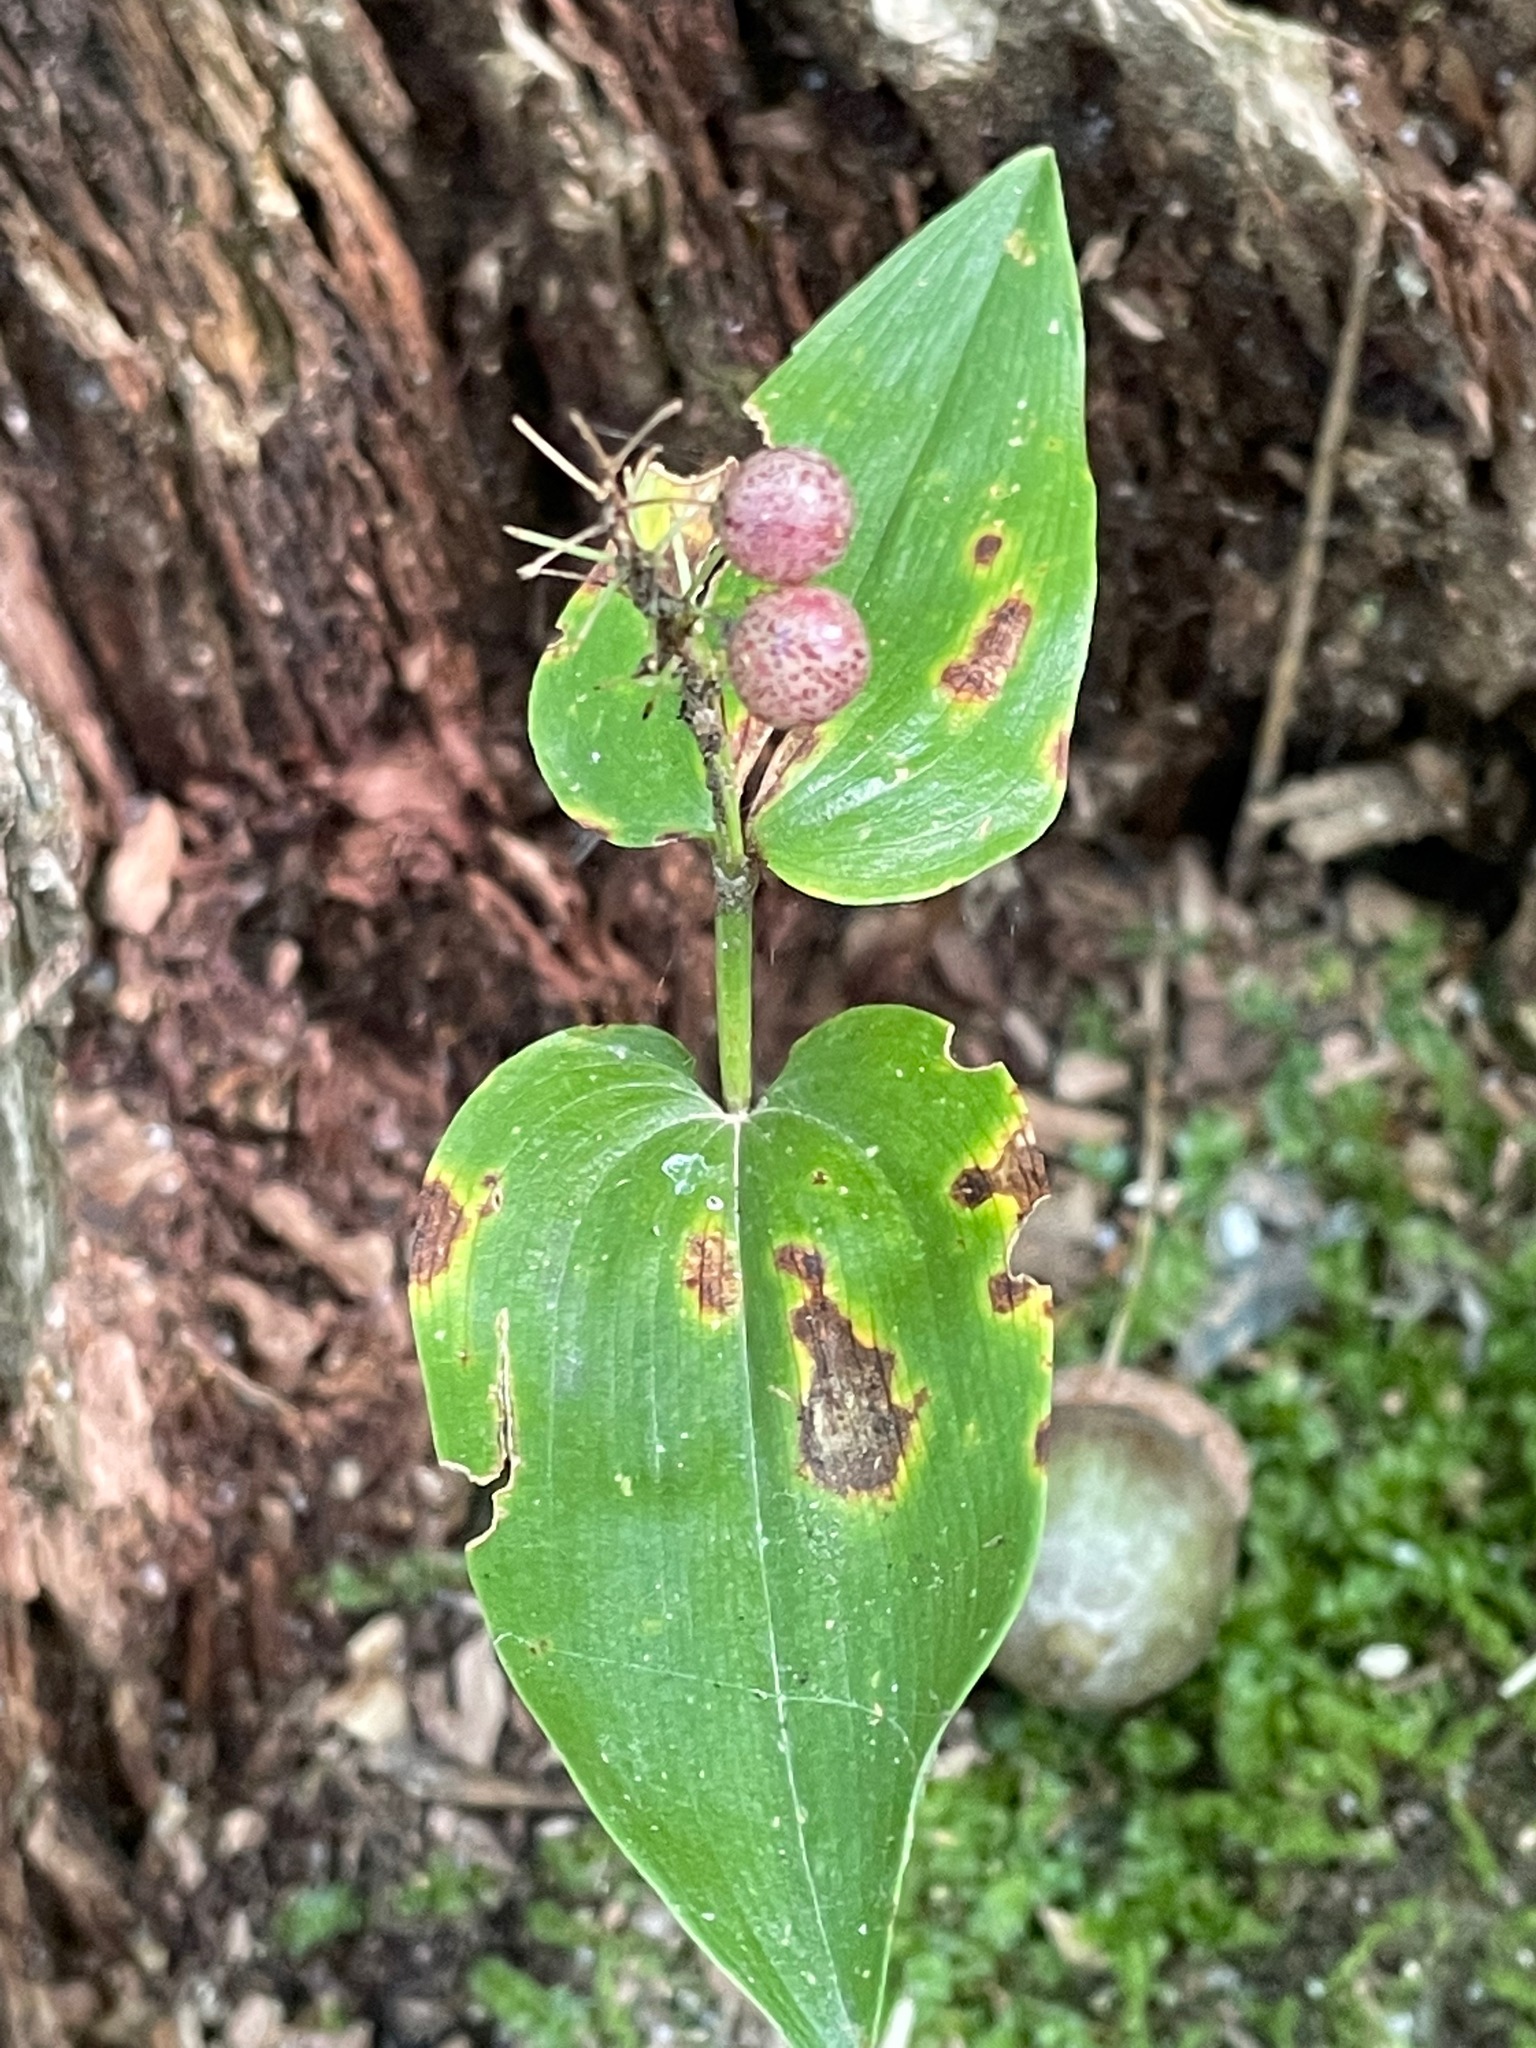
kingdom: Plantae
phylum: Tracheophyta
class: Liliopsida
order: Asparagales
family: Asparagaceae
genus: Maianthemum
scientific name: Maianthemum canadense
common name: False lily-of-the-valley
